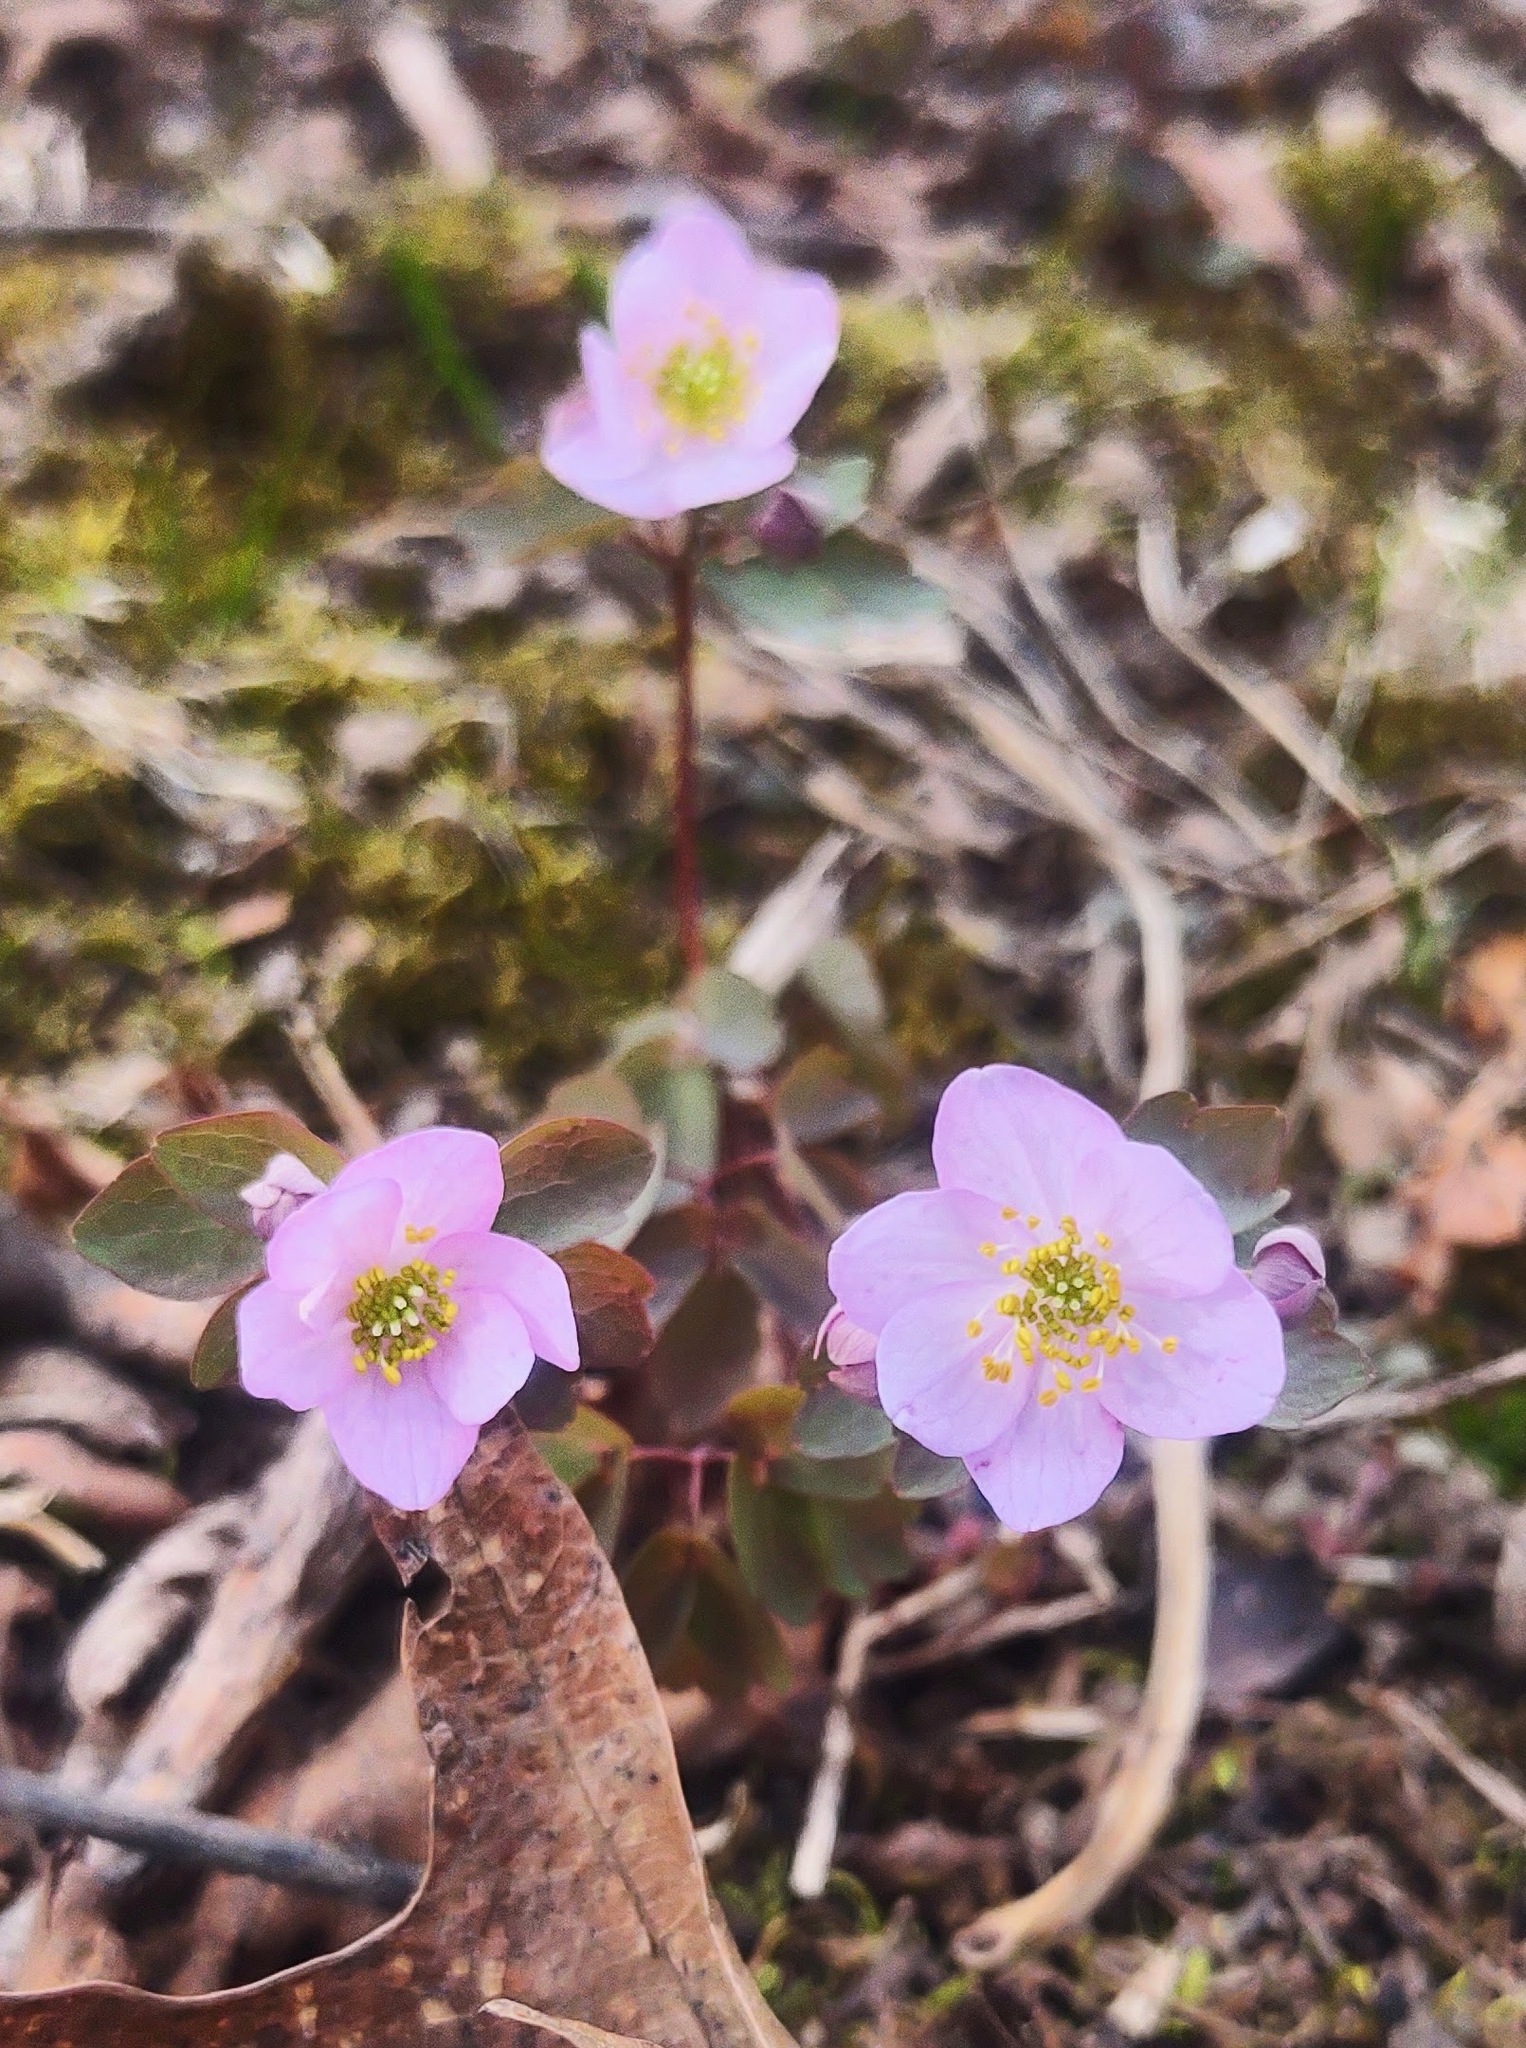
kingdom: Plantae
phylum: Tracheophyta
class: Magnoliopsida
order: Ranunculales
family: Ranunculaceae
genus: Thalictrum
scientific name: Thalictrum thalictroides
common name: Rue-anemone
